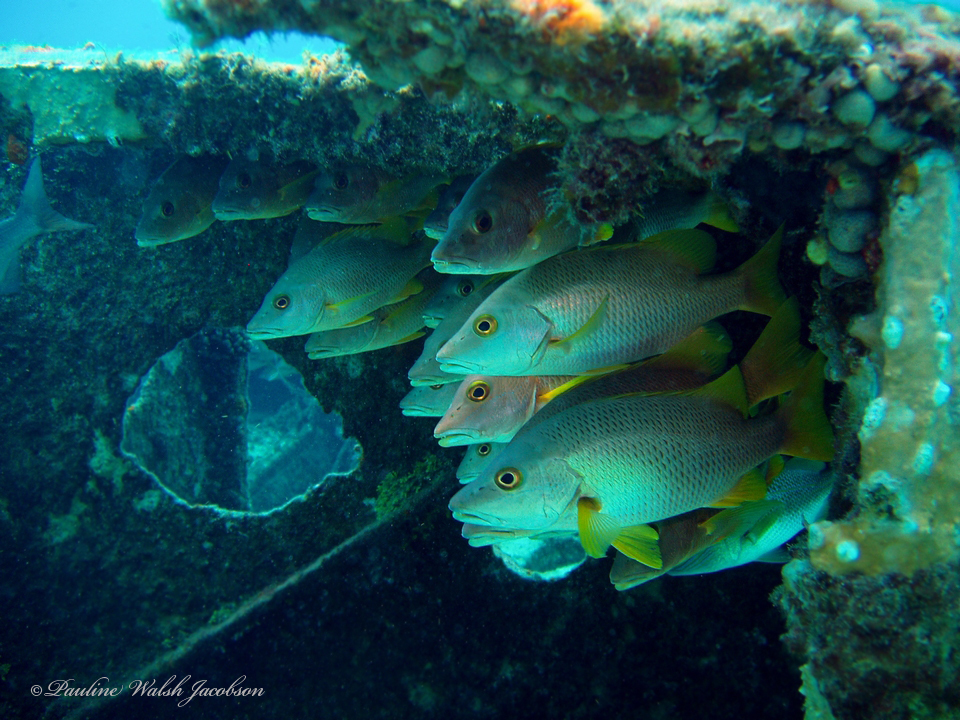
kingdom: Animalia
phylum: Chordata
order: Perciformes
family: Lutjanidae
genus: Lutjanus
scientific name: Lutjanus apodus
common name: Schoolmaster
